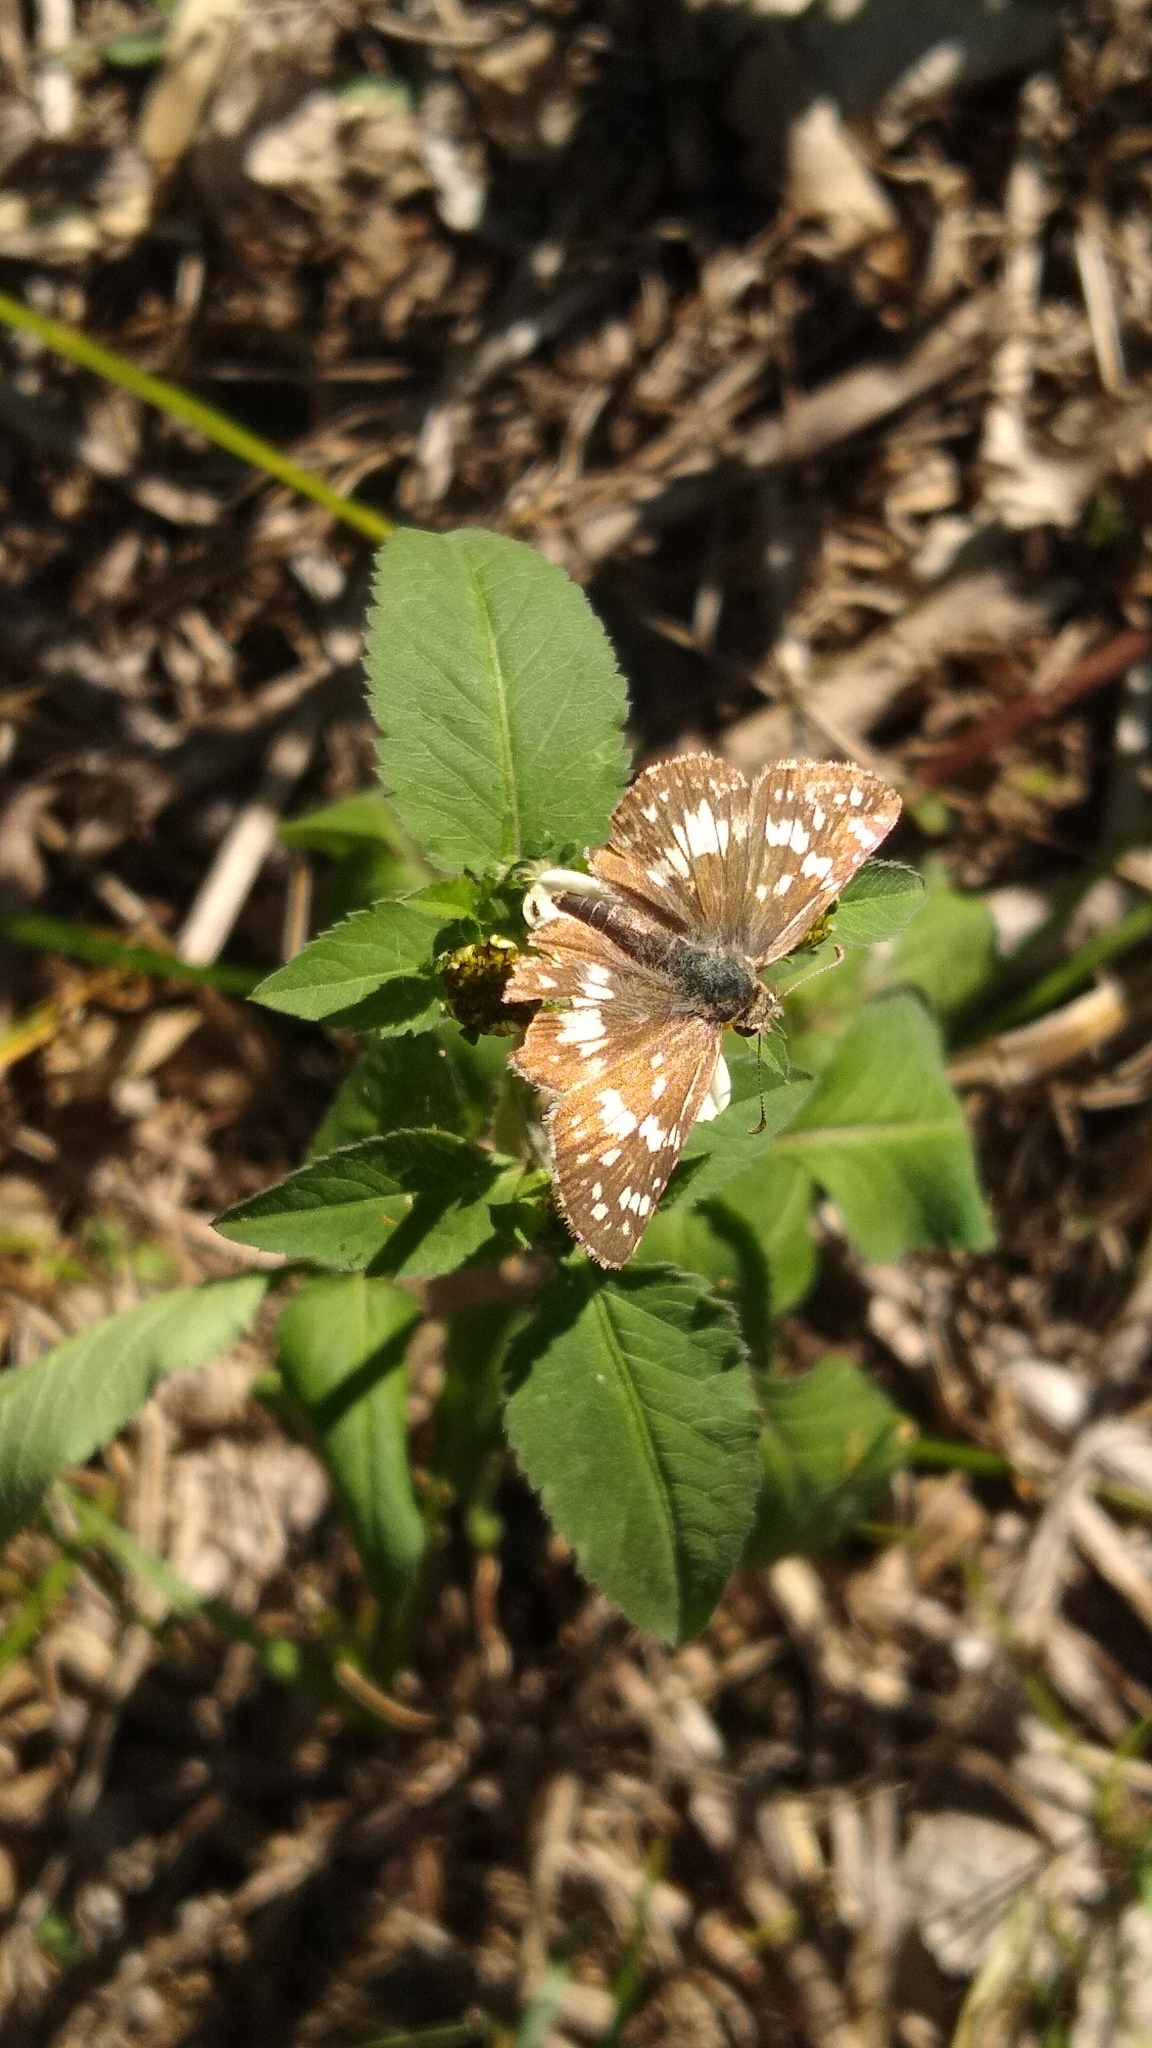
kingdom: Animalia
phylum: Arthropoda
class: Insecta
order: Lepidoptera
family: Hesperiidae
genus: Burnsius
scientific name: Burnsius orcynoides
